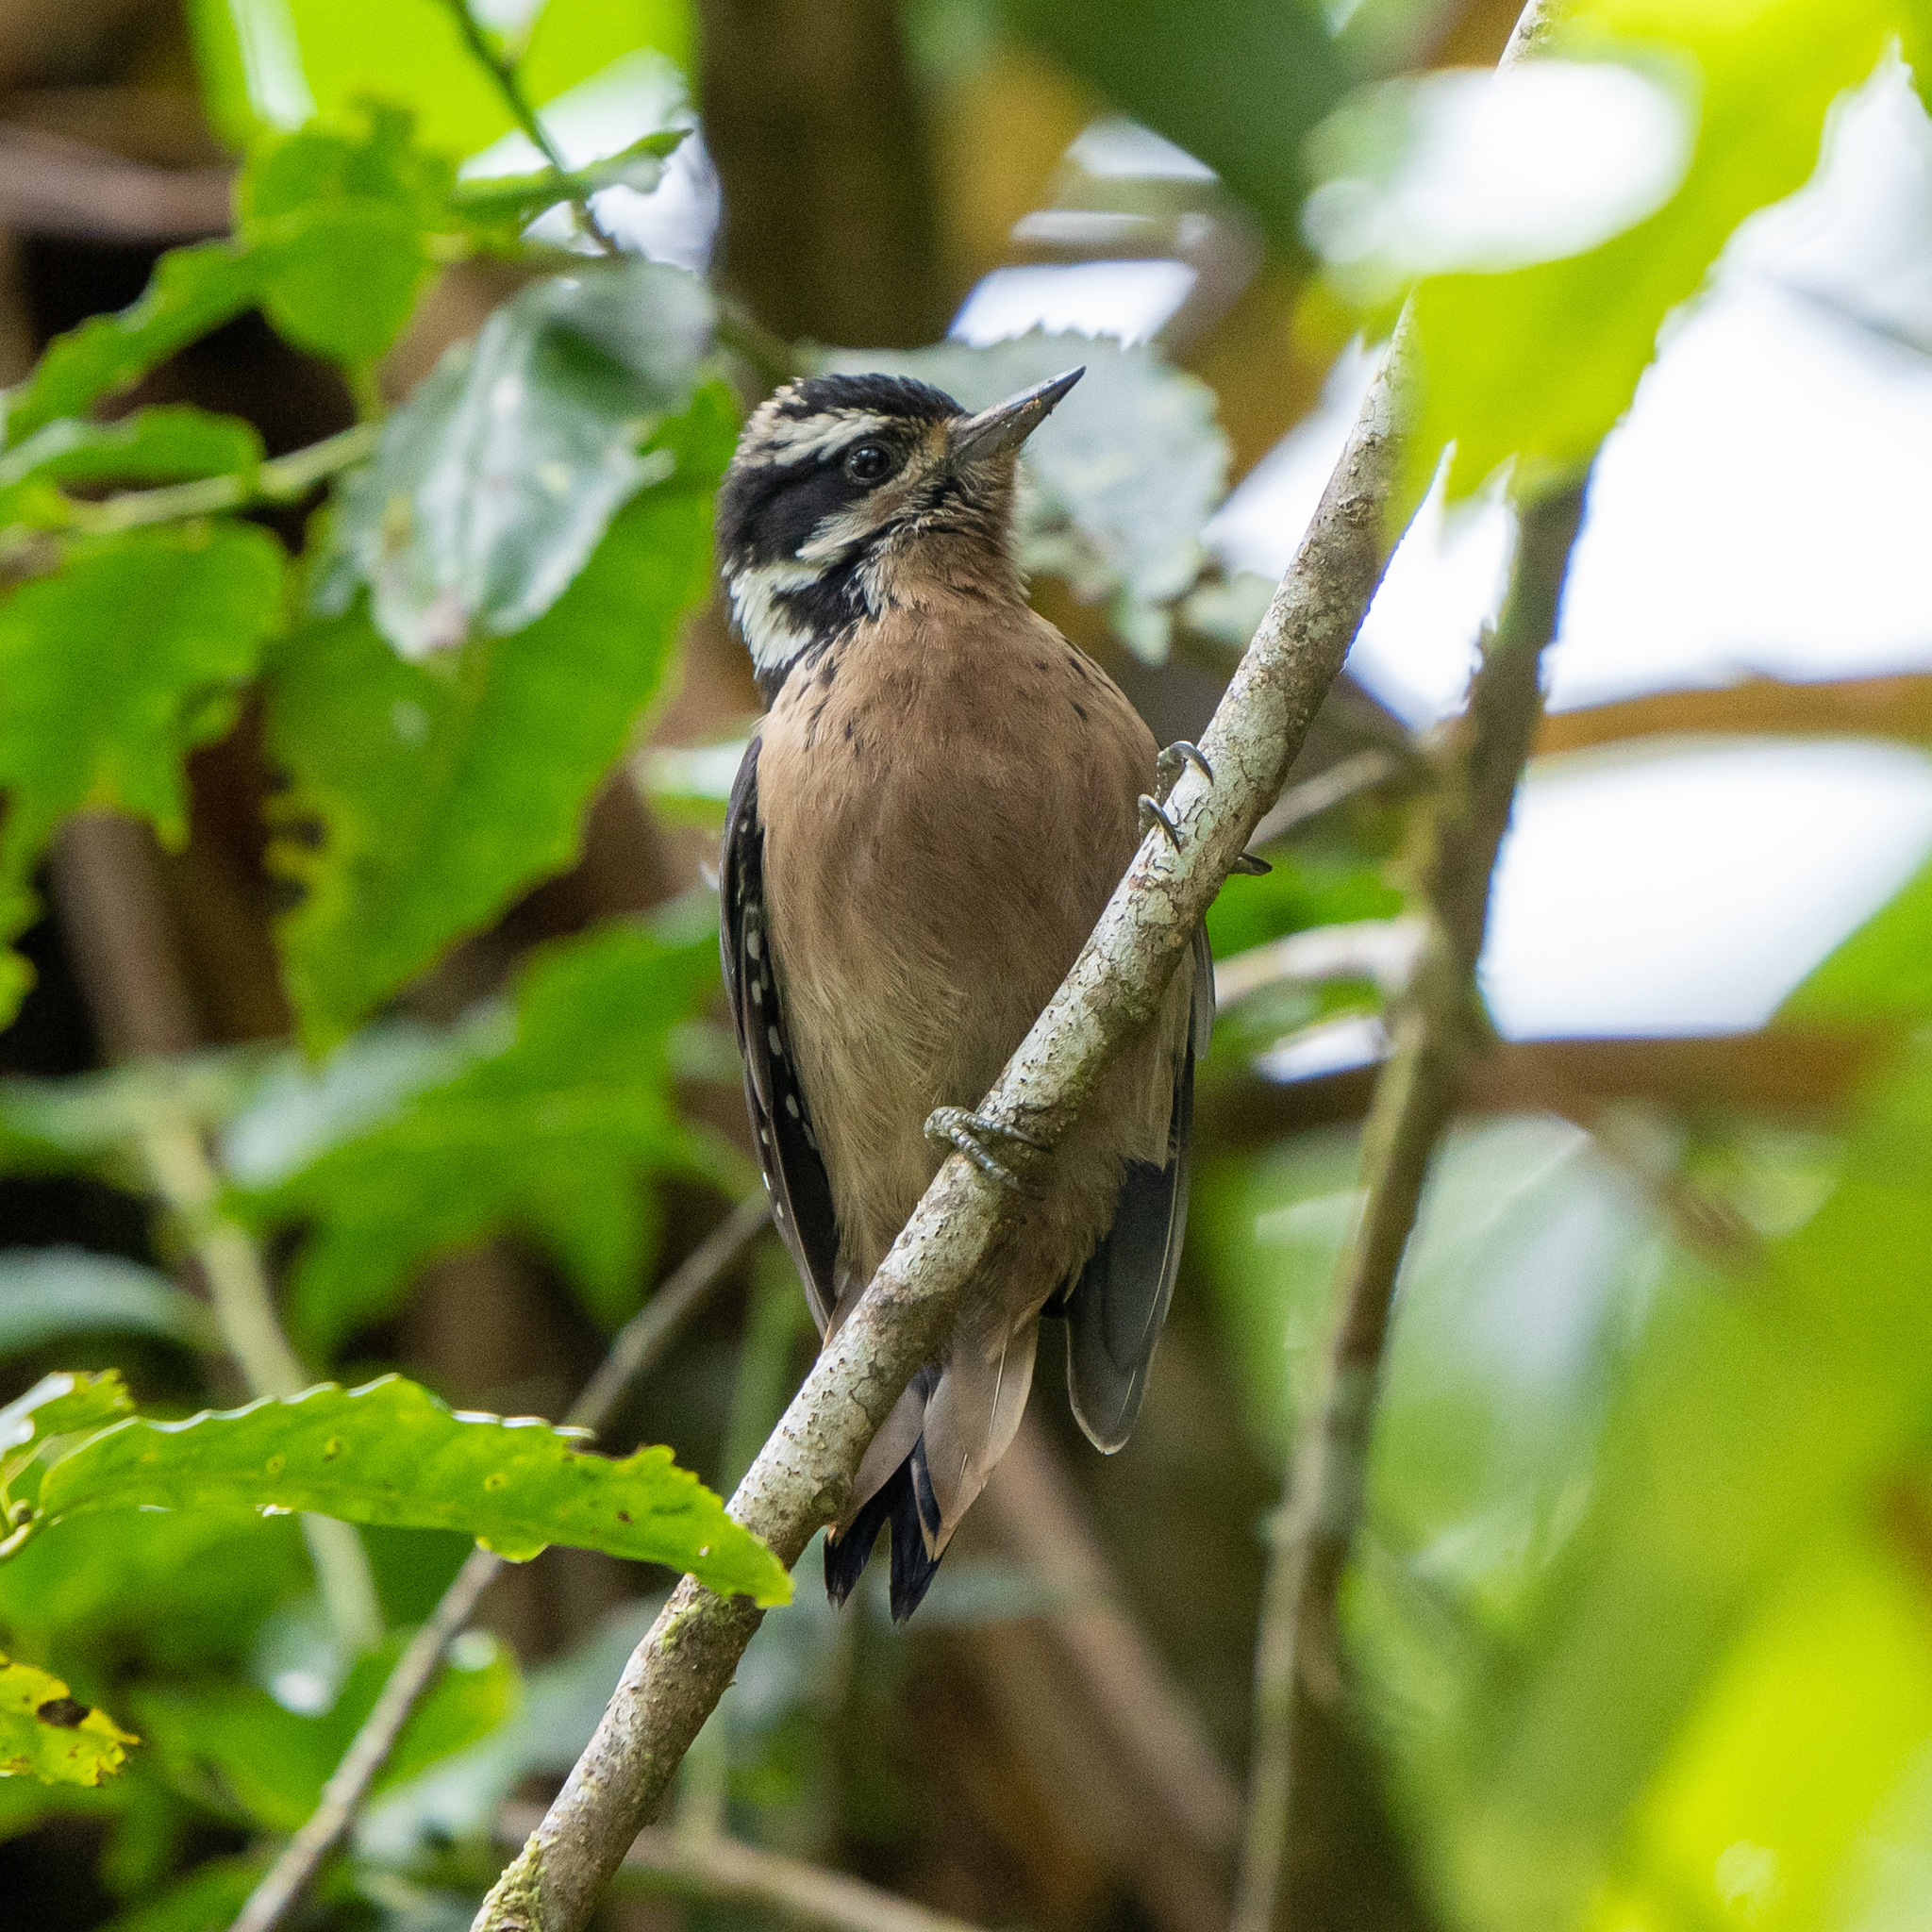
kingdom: Animalia
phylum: Chordata
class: Aves
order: Piciformes
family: Picidae
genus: Leuconotopicus
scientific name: Leuconotopicus villosus
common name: Hairy woodpecker
